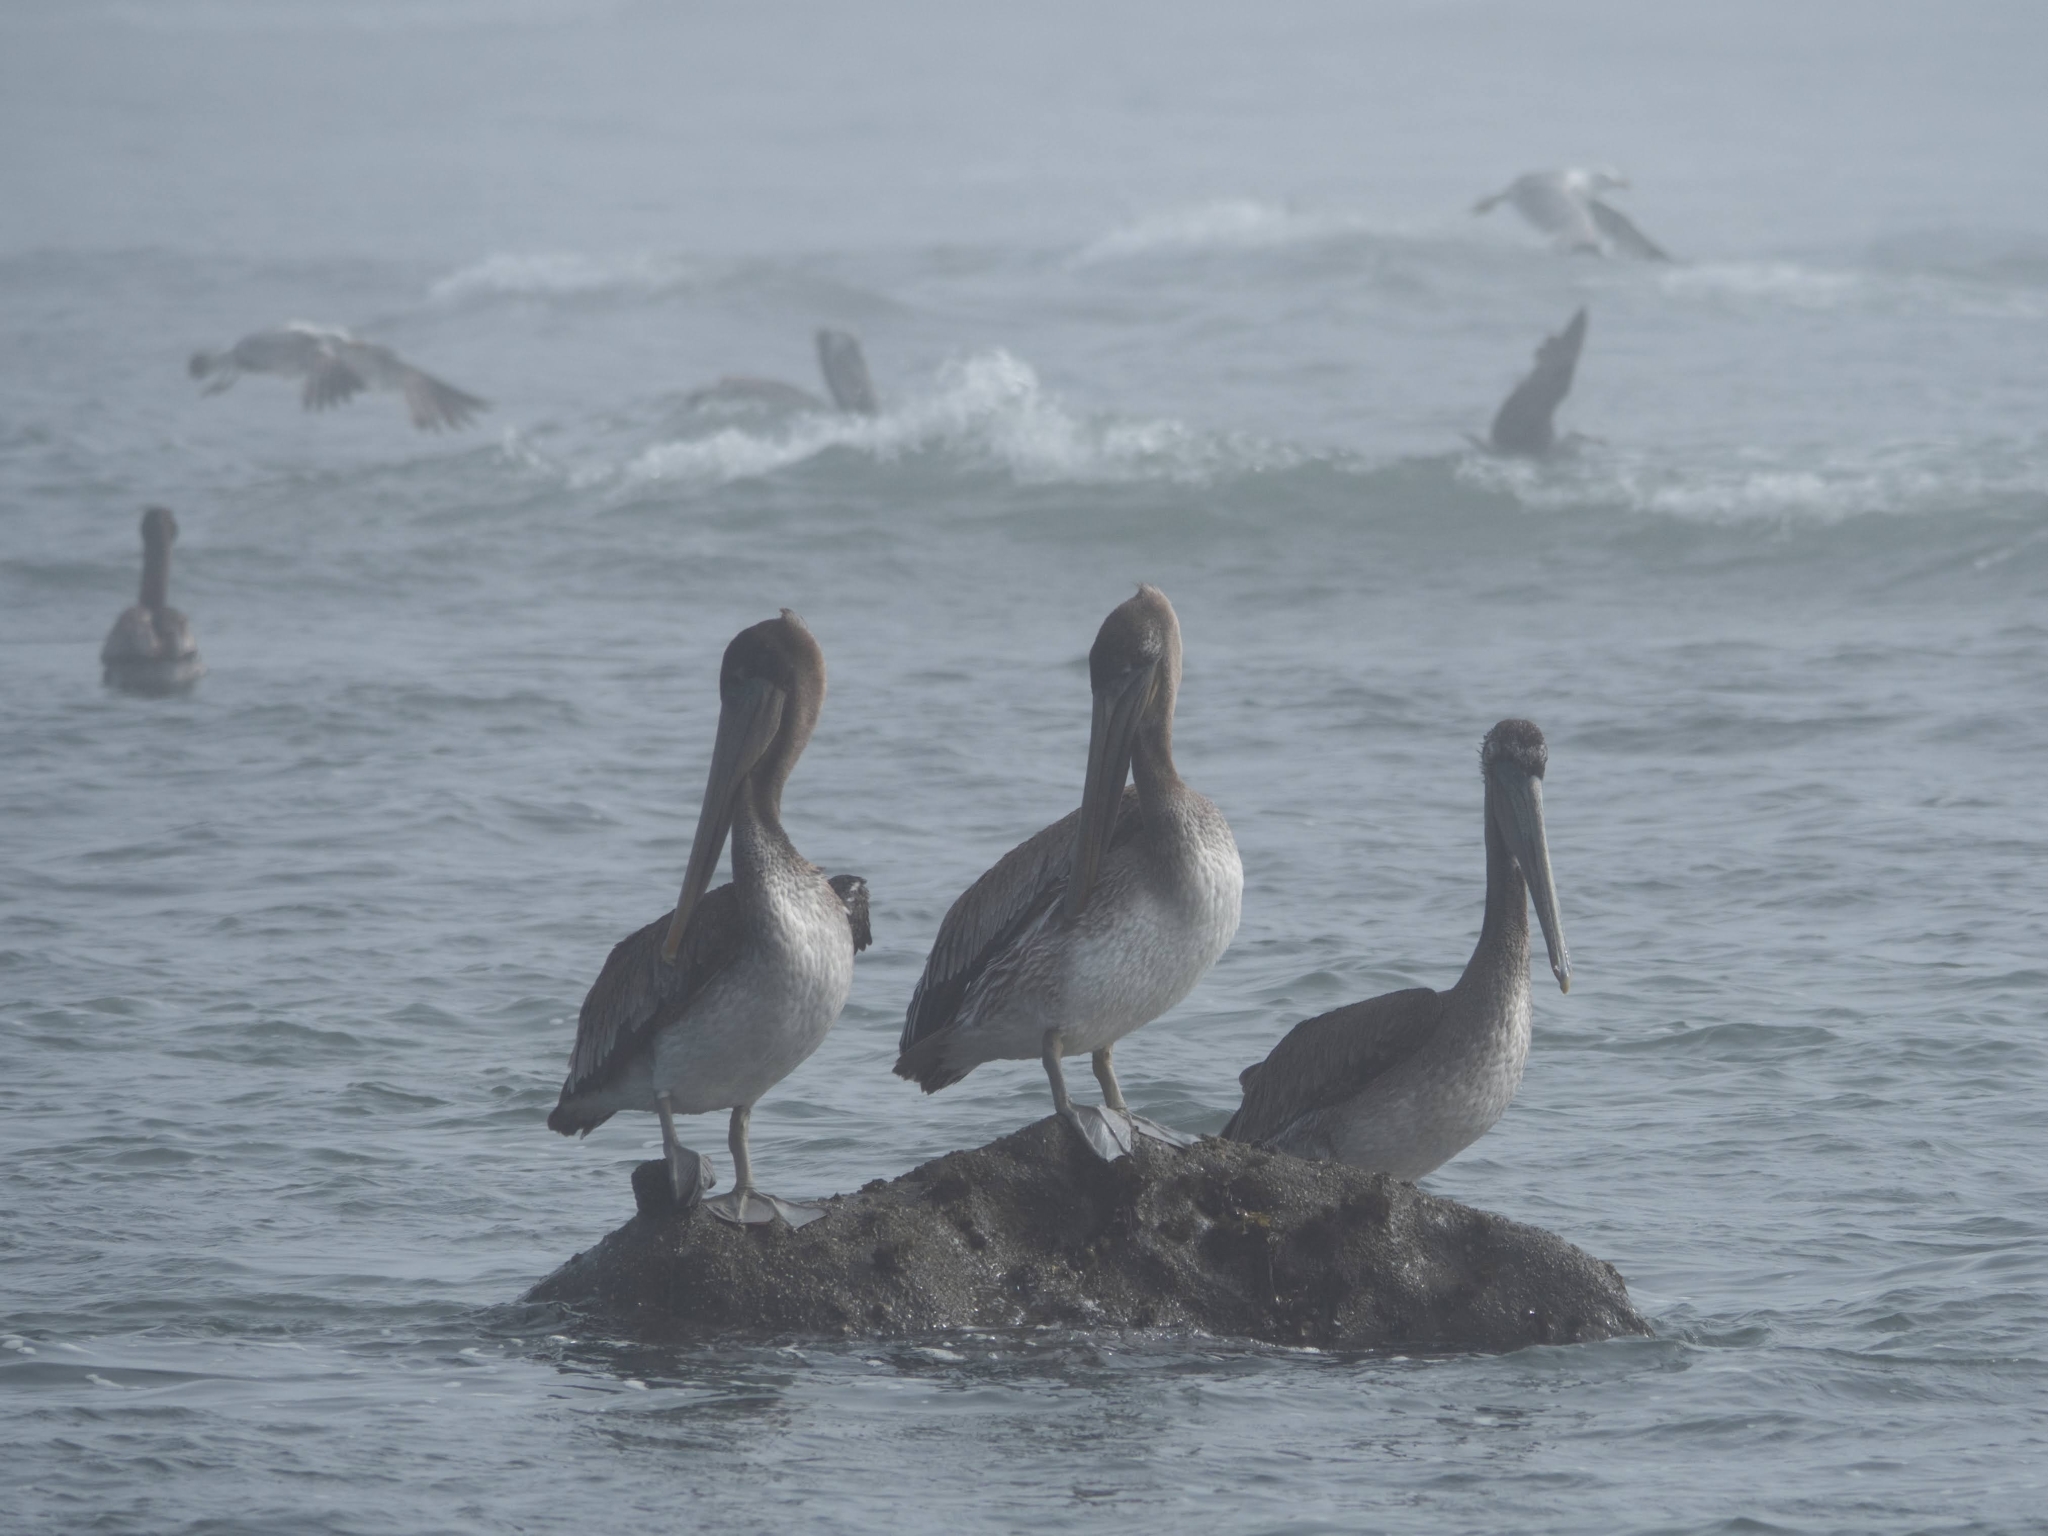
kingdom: Animalia
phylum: Chordata
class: Aves
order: Pelecaniformes
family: Pelecanidae
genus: Pelecanus
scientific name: Pelecanus occidentalis
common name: Brown pelican
